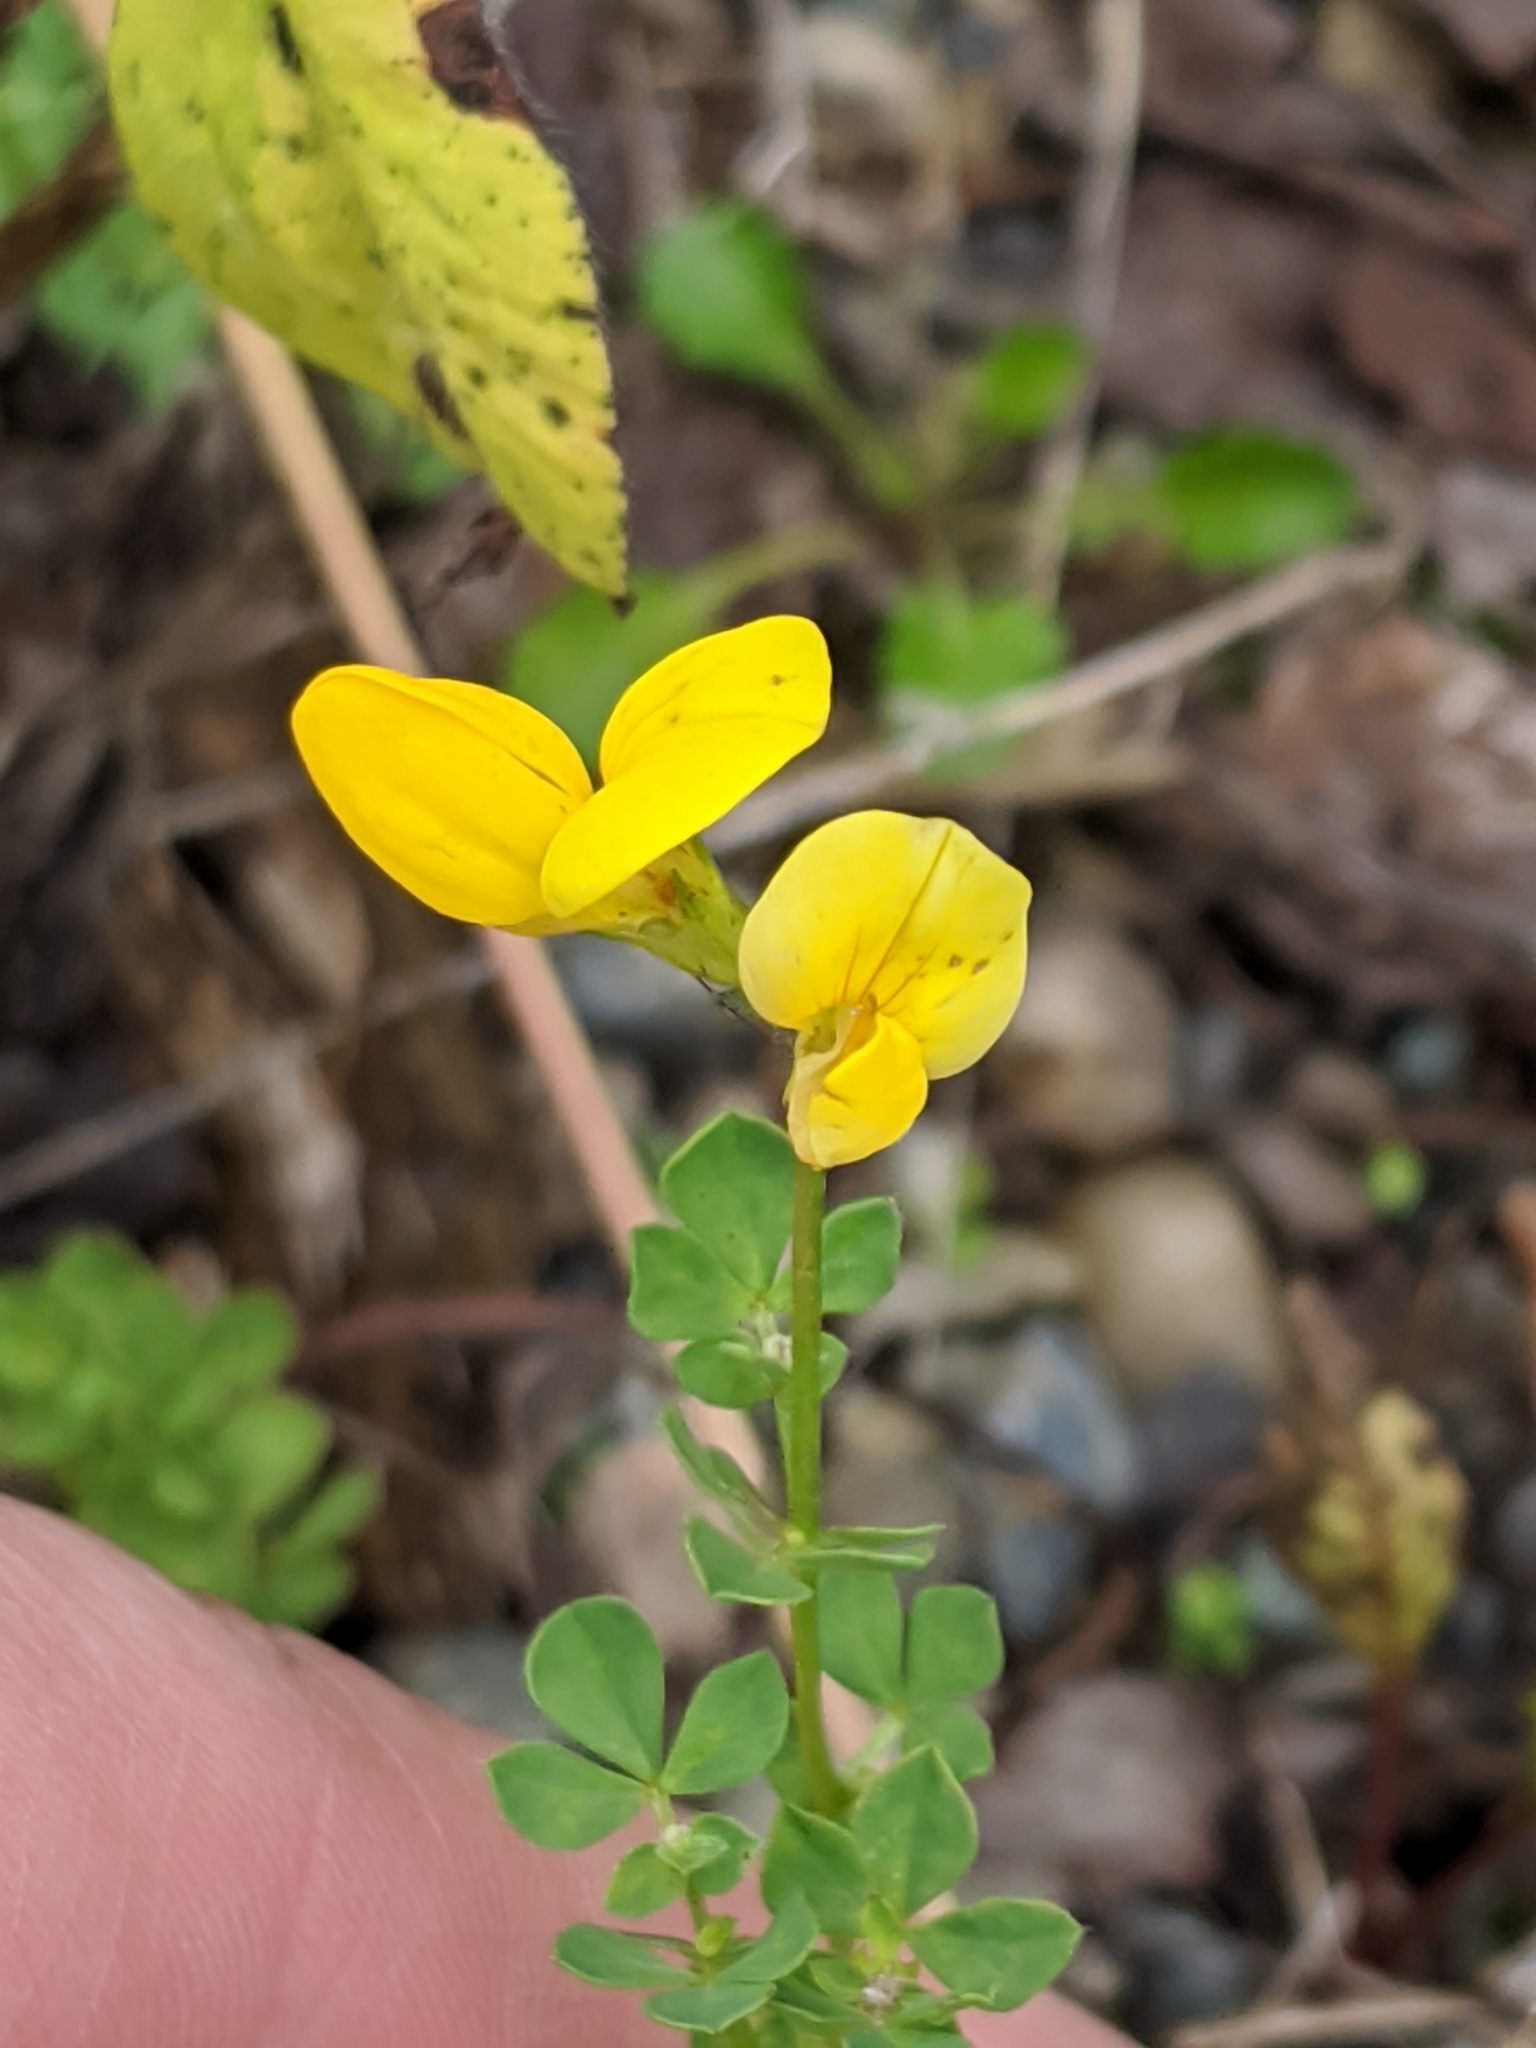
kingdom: Plantae
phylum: Tracheophyta
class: Magnoliopsida
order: Fabales
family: Fabaceae
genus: Lotus
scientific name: Lotus corniculatus
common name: Common bird's-foot-trefoil
